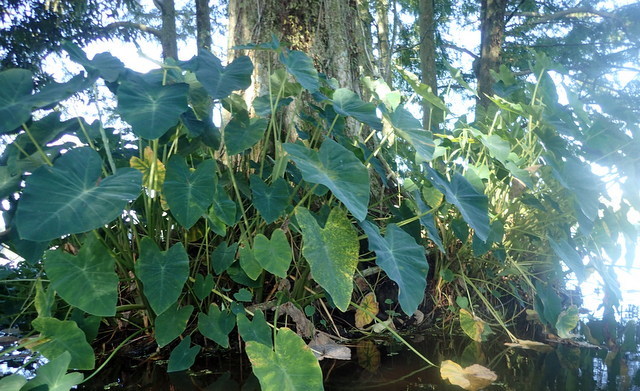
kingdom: Plantae
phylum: Tracheophyta
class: Liliopsida
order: Alismatales
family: Araceae
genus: Colocasia
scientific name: Colocasia esculenta
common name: Taro
